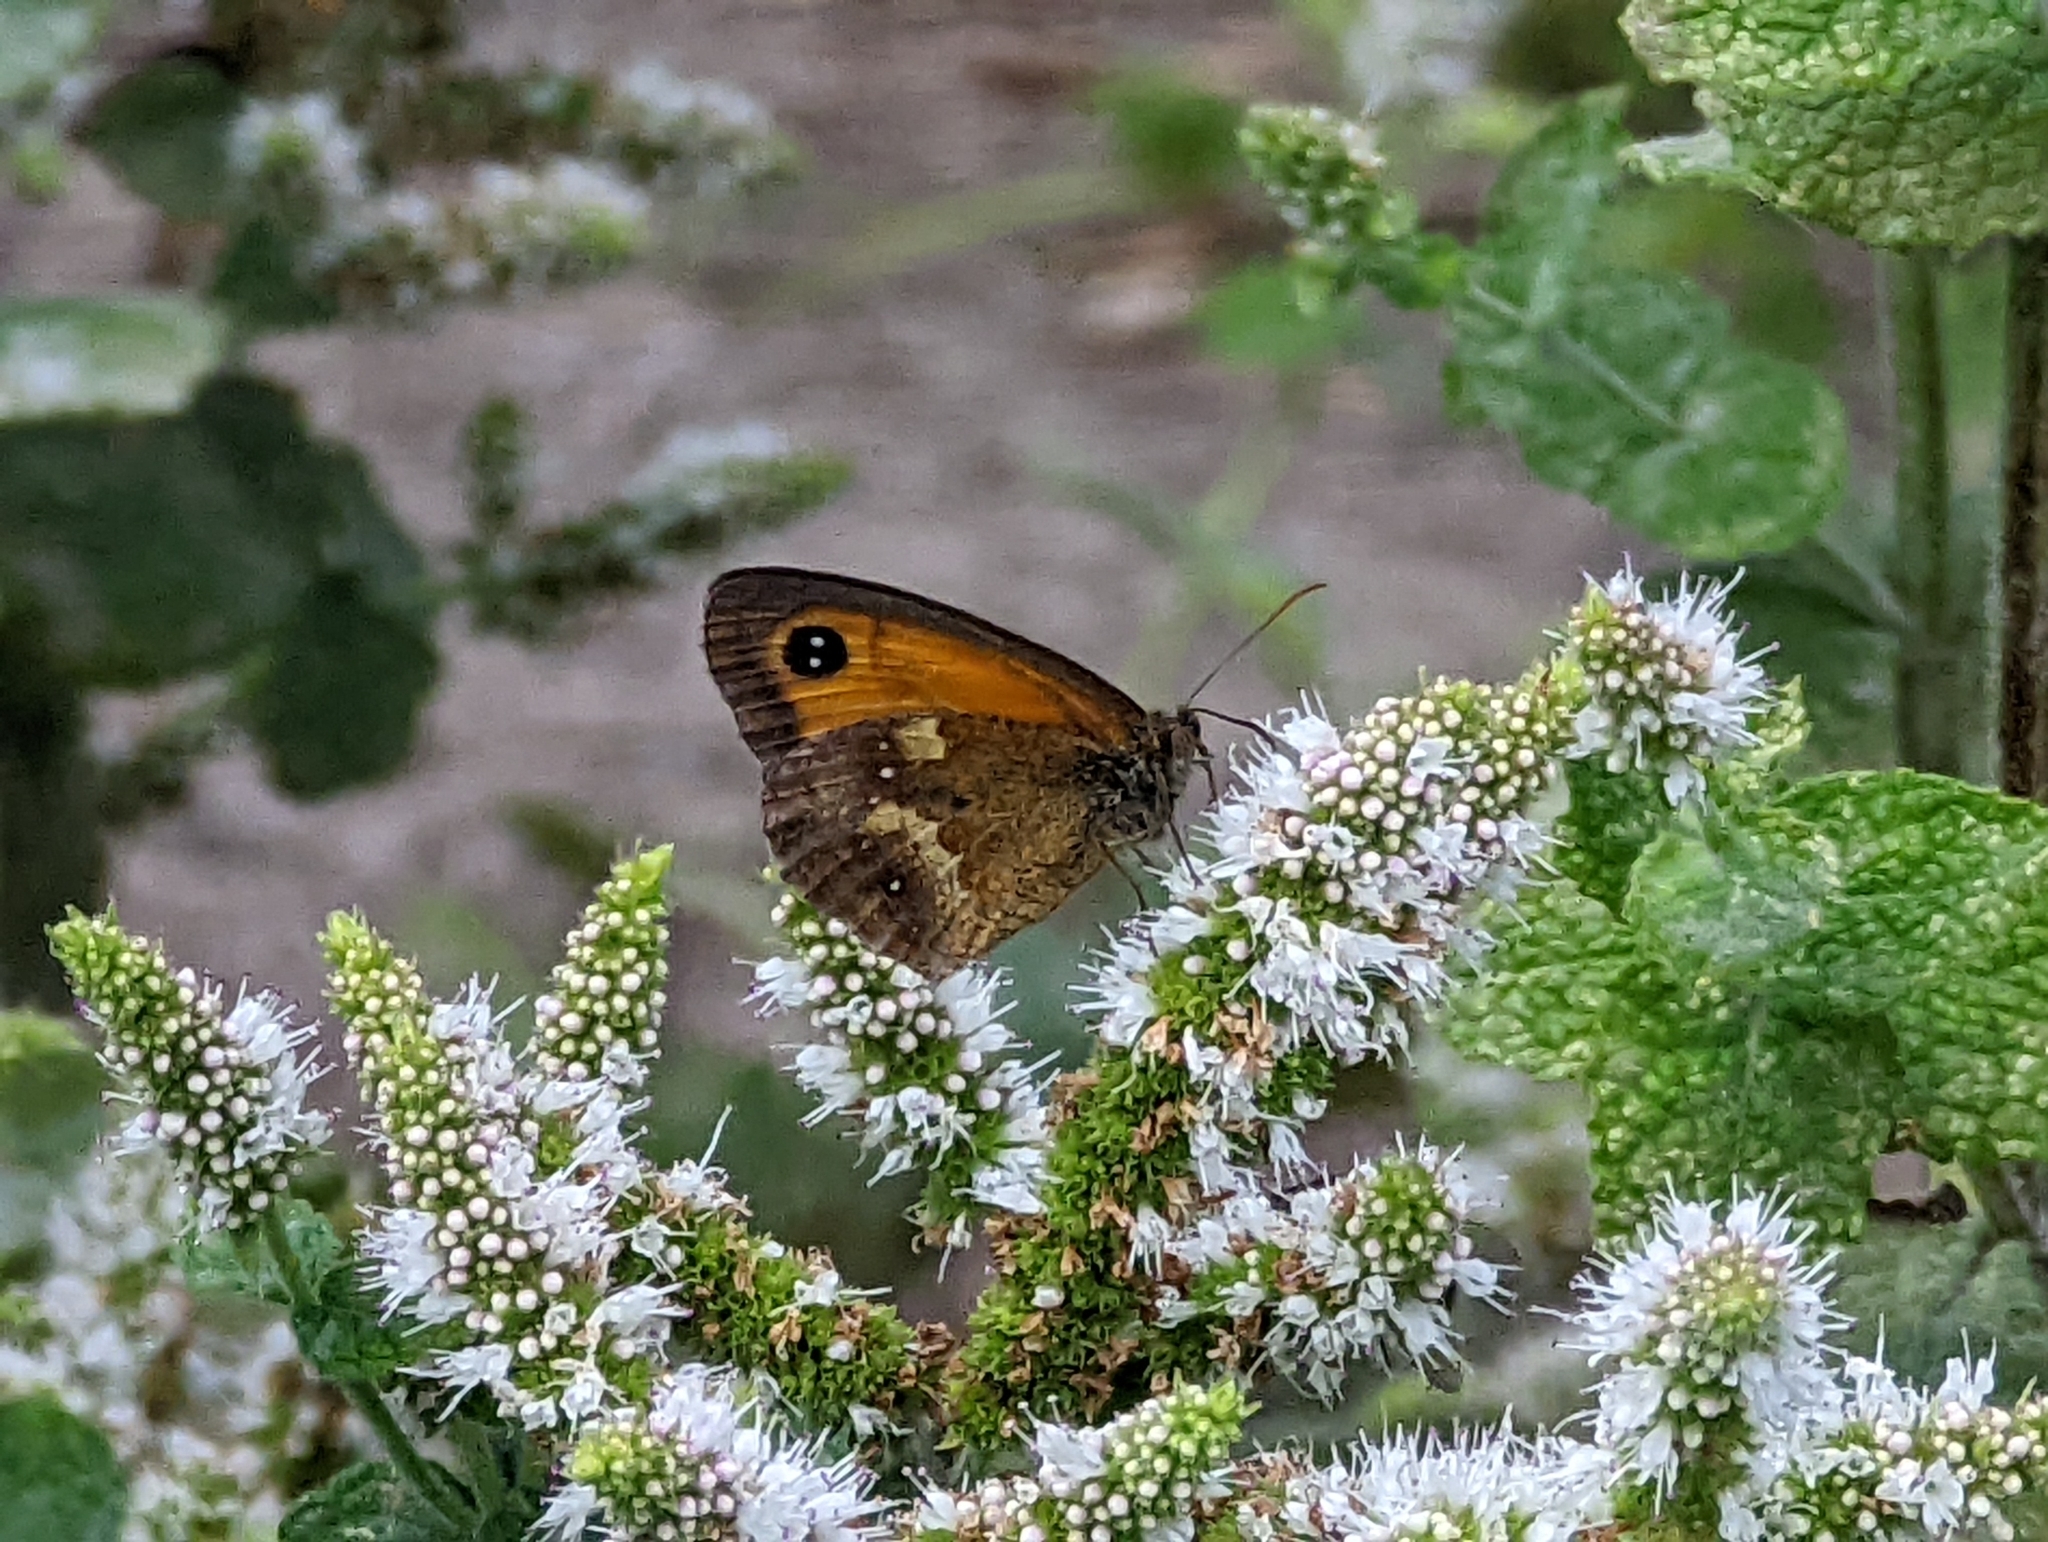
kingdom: Animalia
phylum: Arthropoda
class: Insecta
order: Lepidoptera
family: Nymphalidae
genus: Pyronia
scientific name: Pyronia tithonus
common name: Gatekeeper
